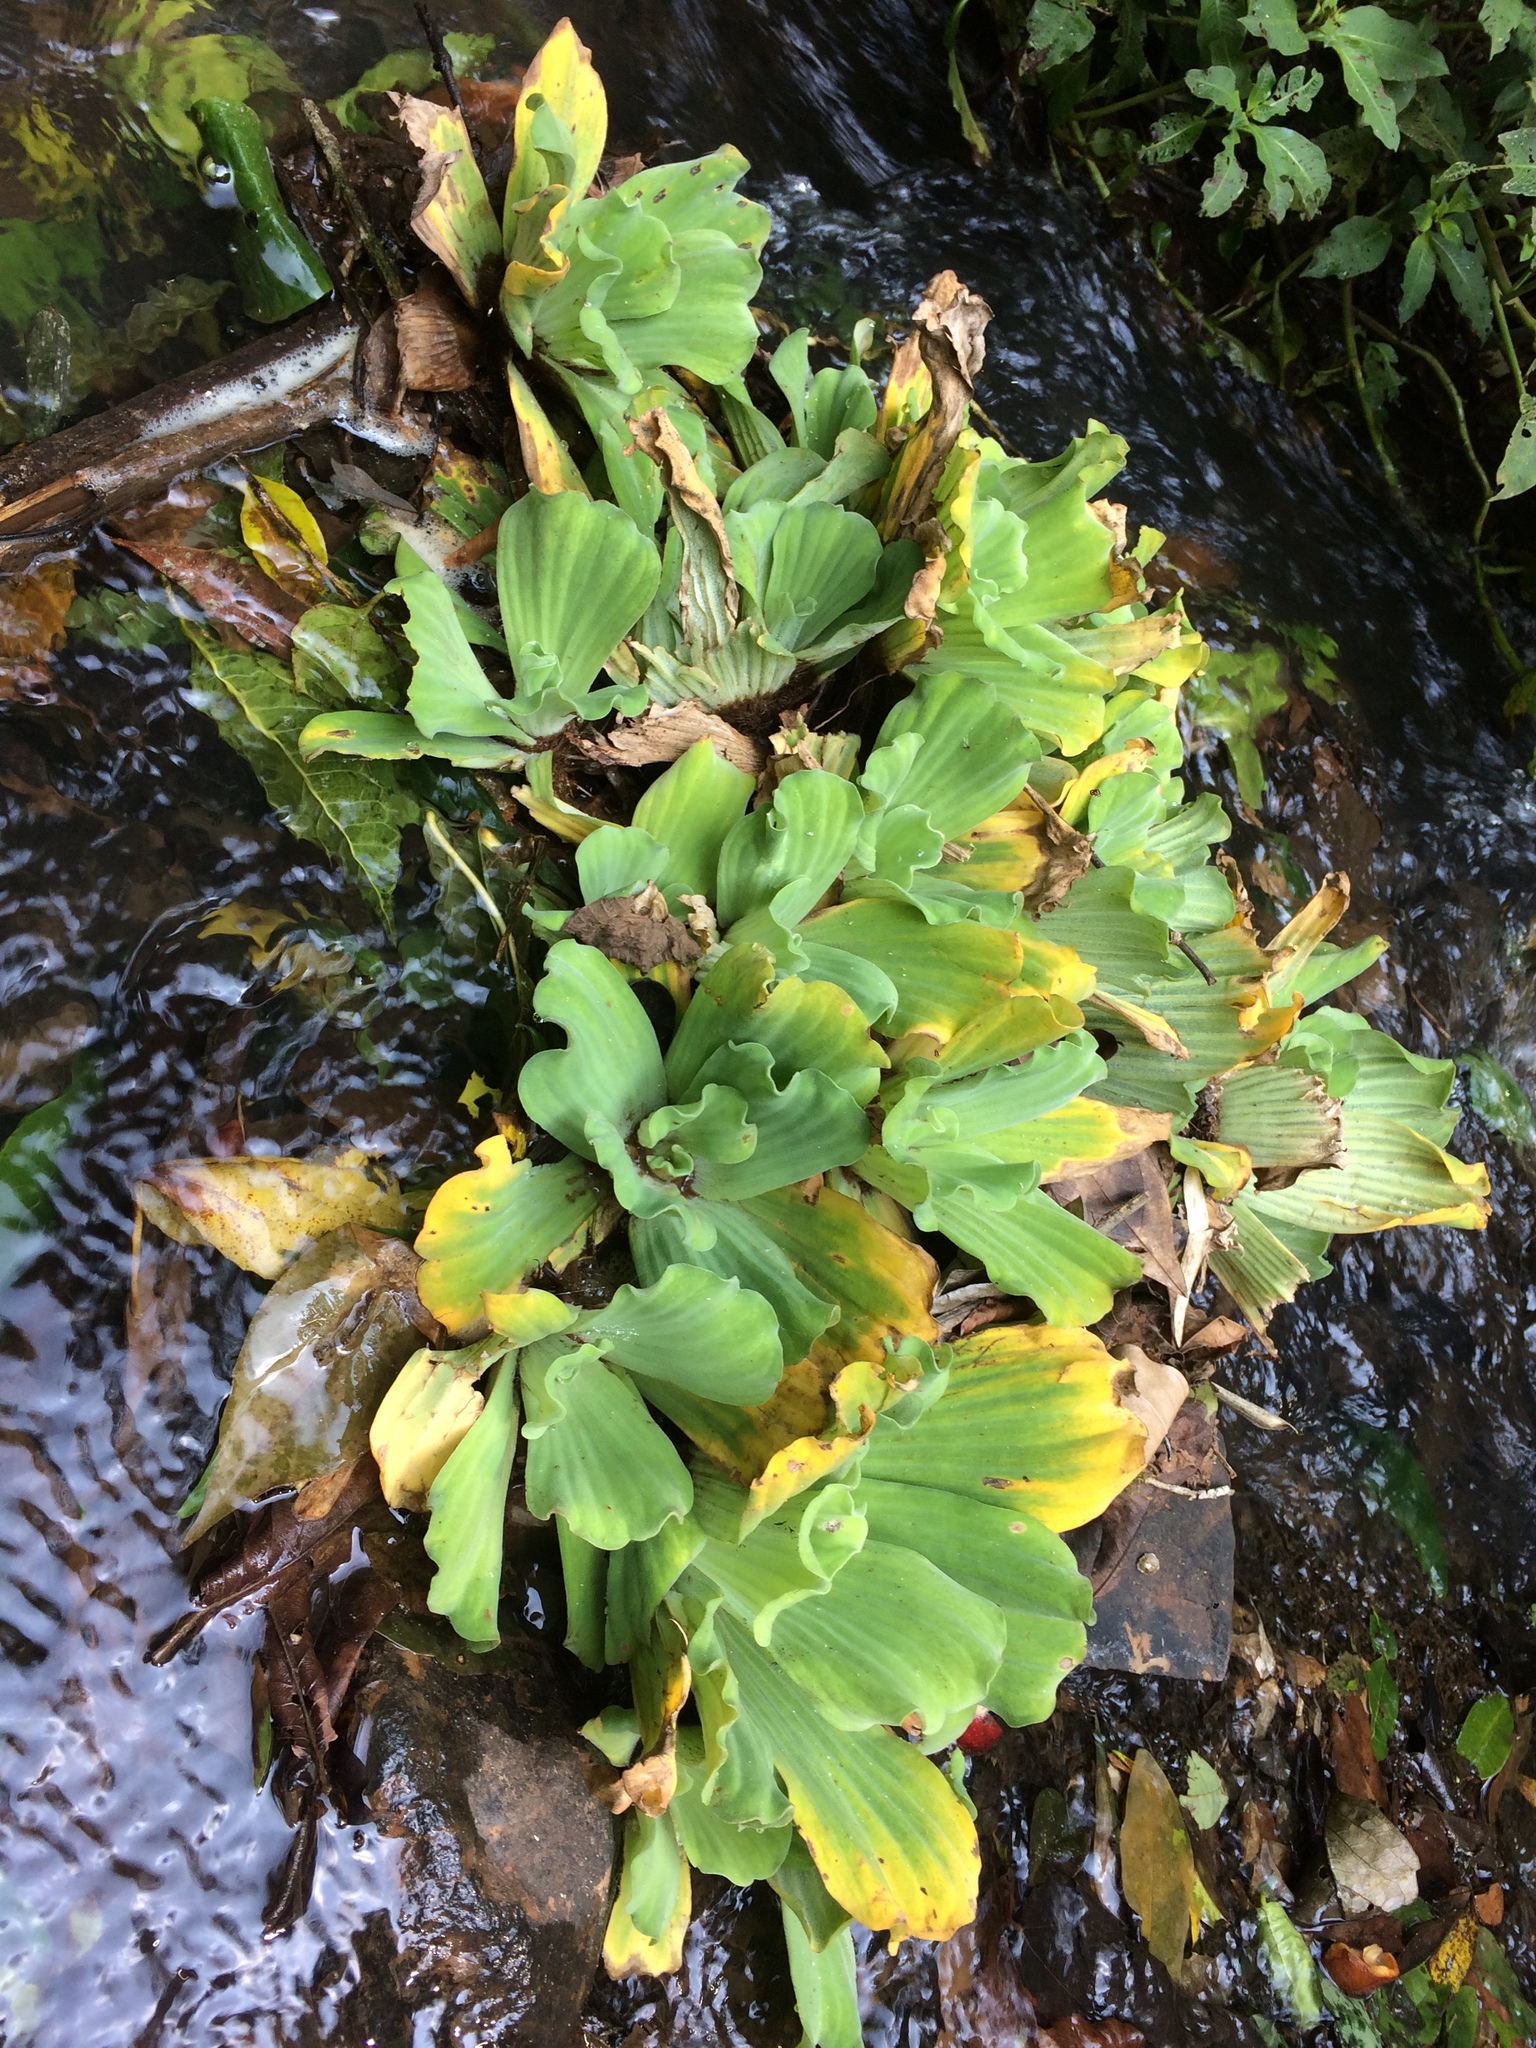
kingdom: Plantae
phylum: Tracheophyta
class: Liliopsida
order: Alismatales
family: Araceae
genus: Pistia
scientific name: Pistia stratiotes
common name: Water lettuce
